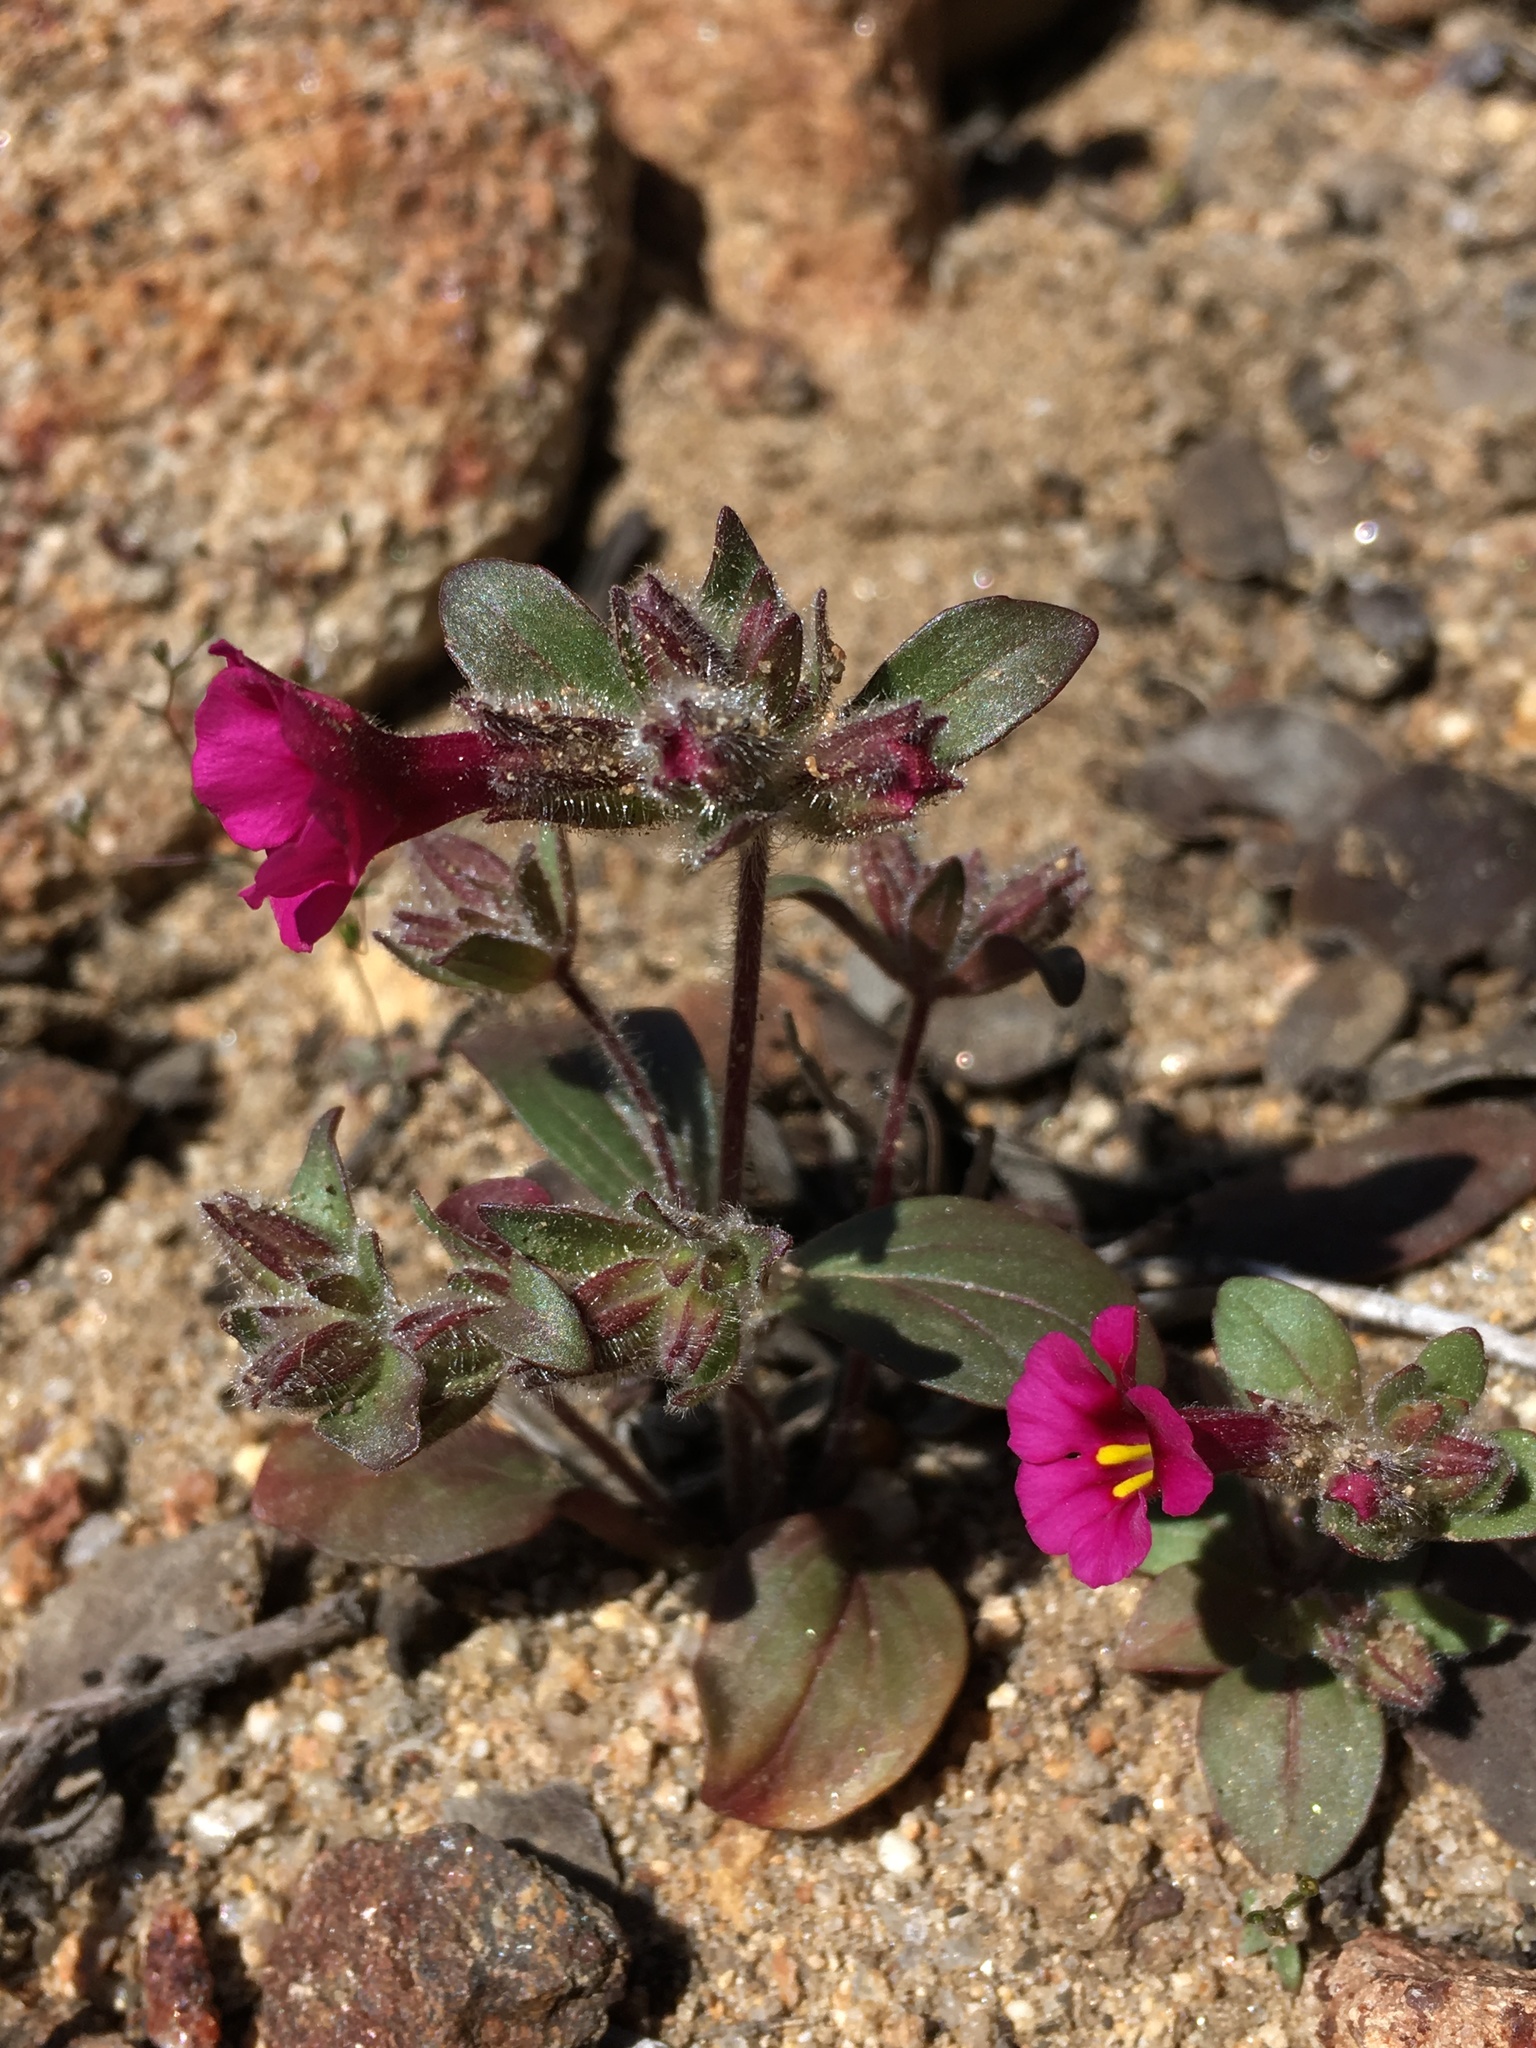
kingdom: Plantae
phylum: Tracheophyta
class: Magnoliopsida
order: Lamiales
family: Phrymaceae
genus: Diplacus
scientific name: Diplacus fremontii
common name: Fremont's monkey-flower
